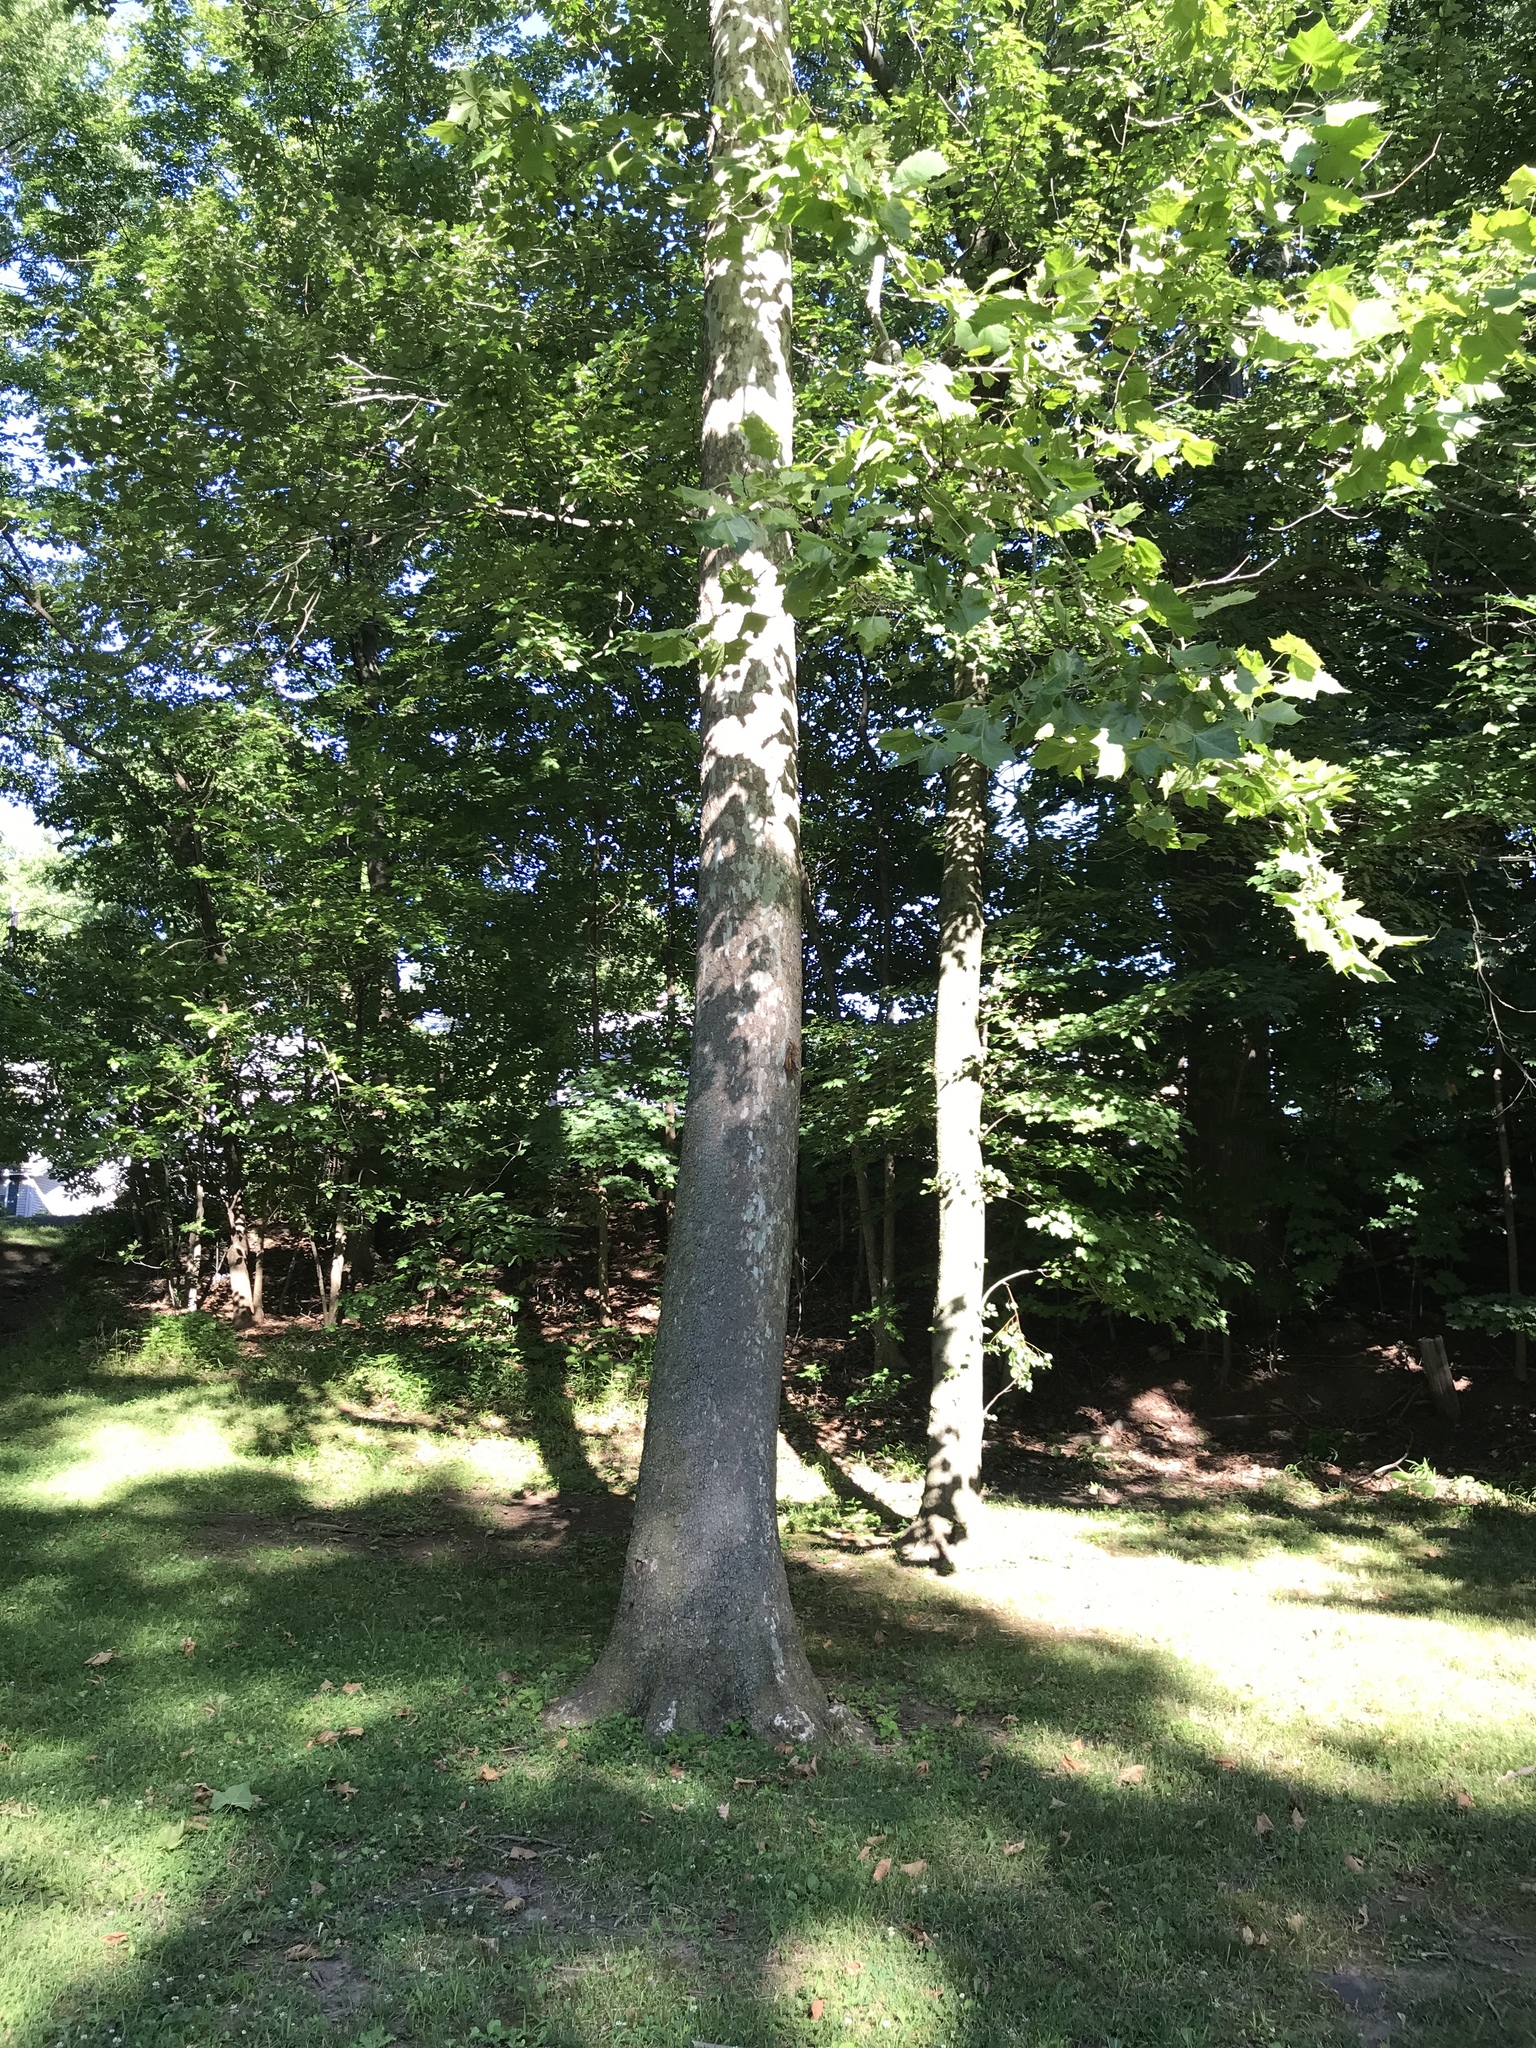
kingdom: Plantae
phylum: Tracheophyta
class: Magnoliopsida
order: Proteales
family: Platanaceae
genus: Platanus
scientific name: Platanus occidentalis
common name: American sycamore
